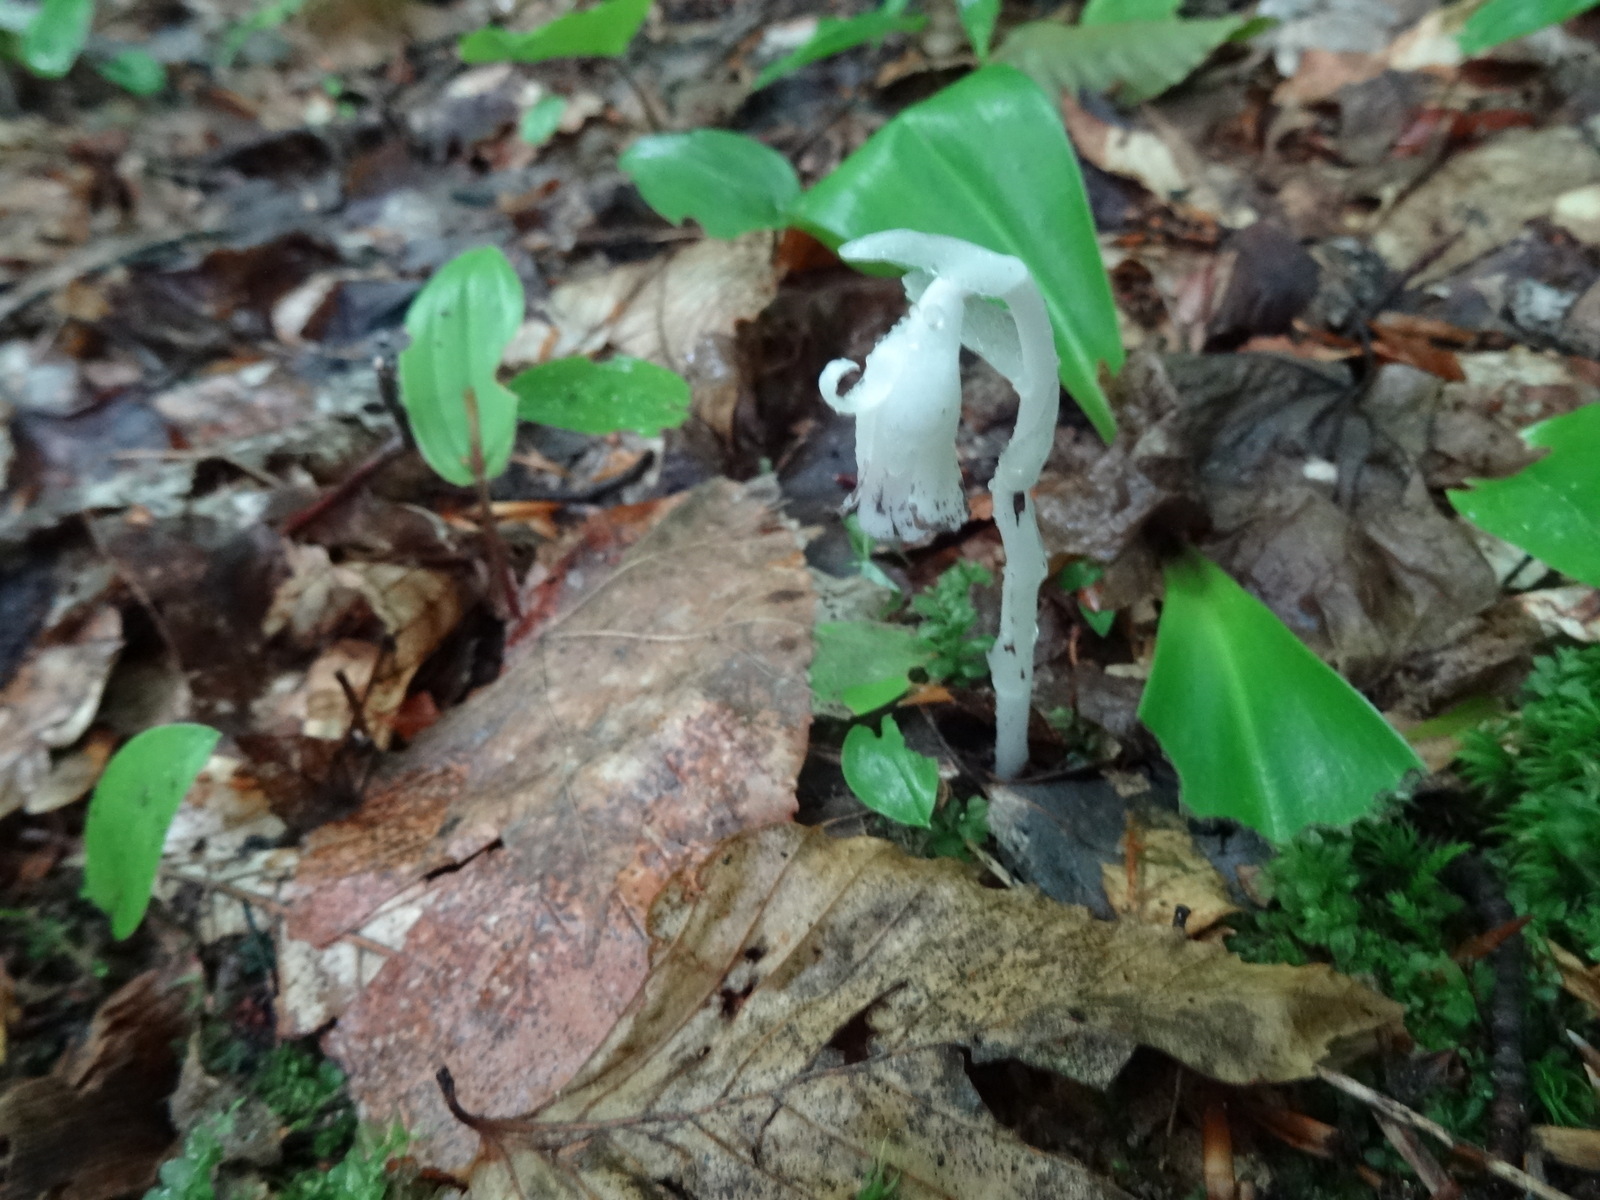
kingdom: Plantae
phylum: Tracheophyta
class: Magnoliopsida
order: Ericales
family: Ericaceae
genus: Monotropa
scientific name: Monotropa uniflora
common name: Convulsion root
